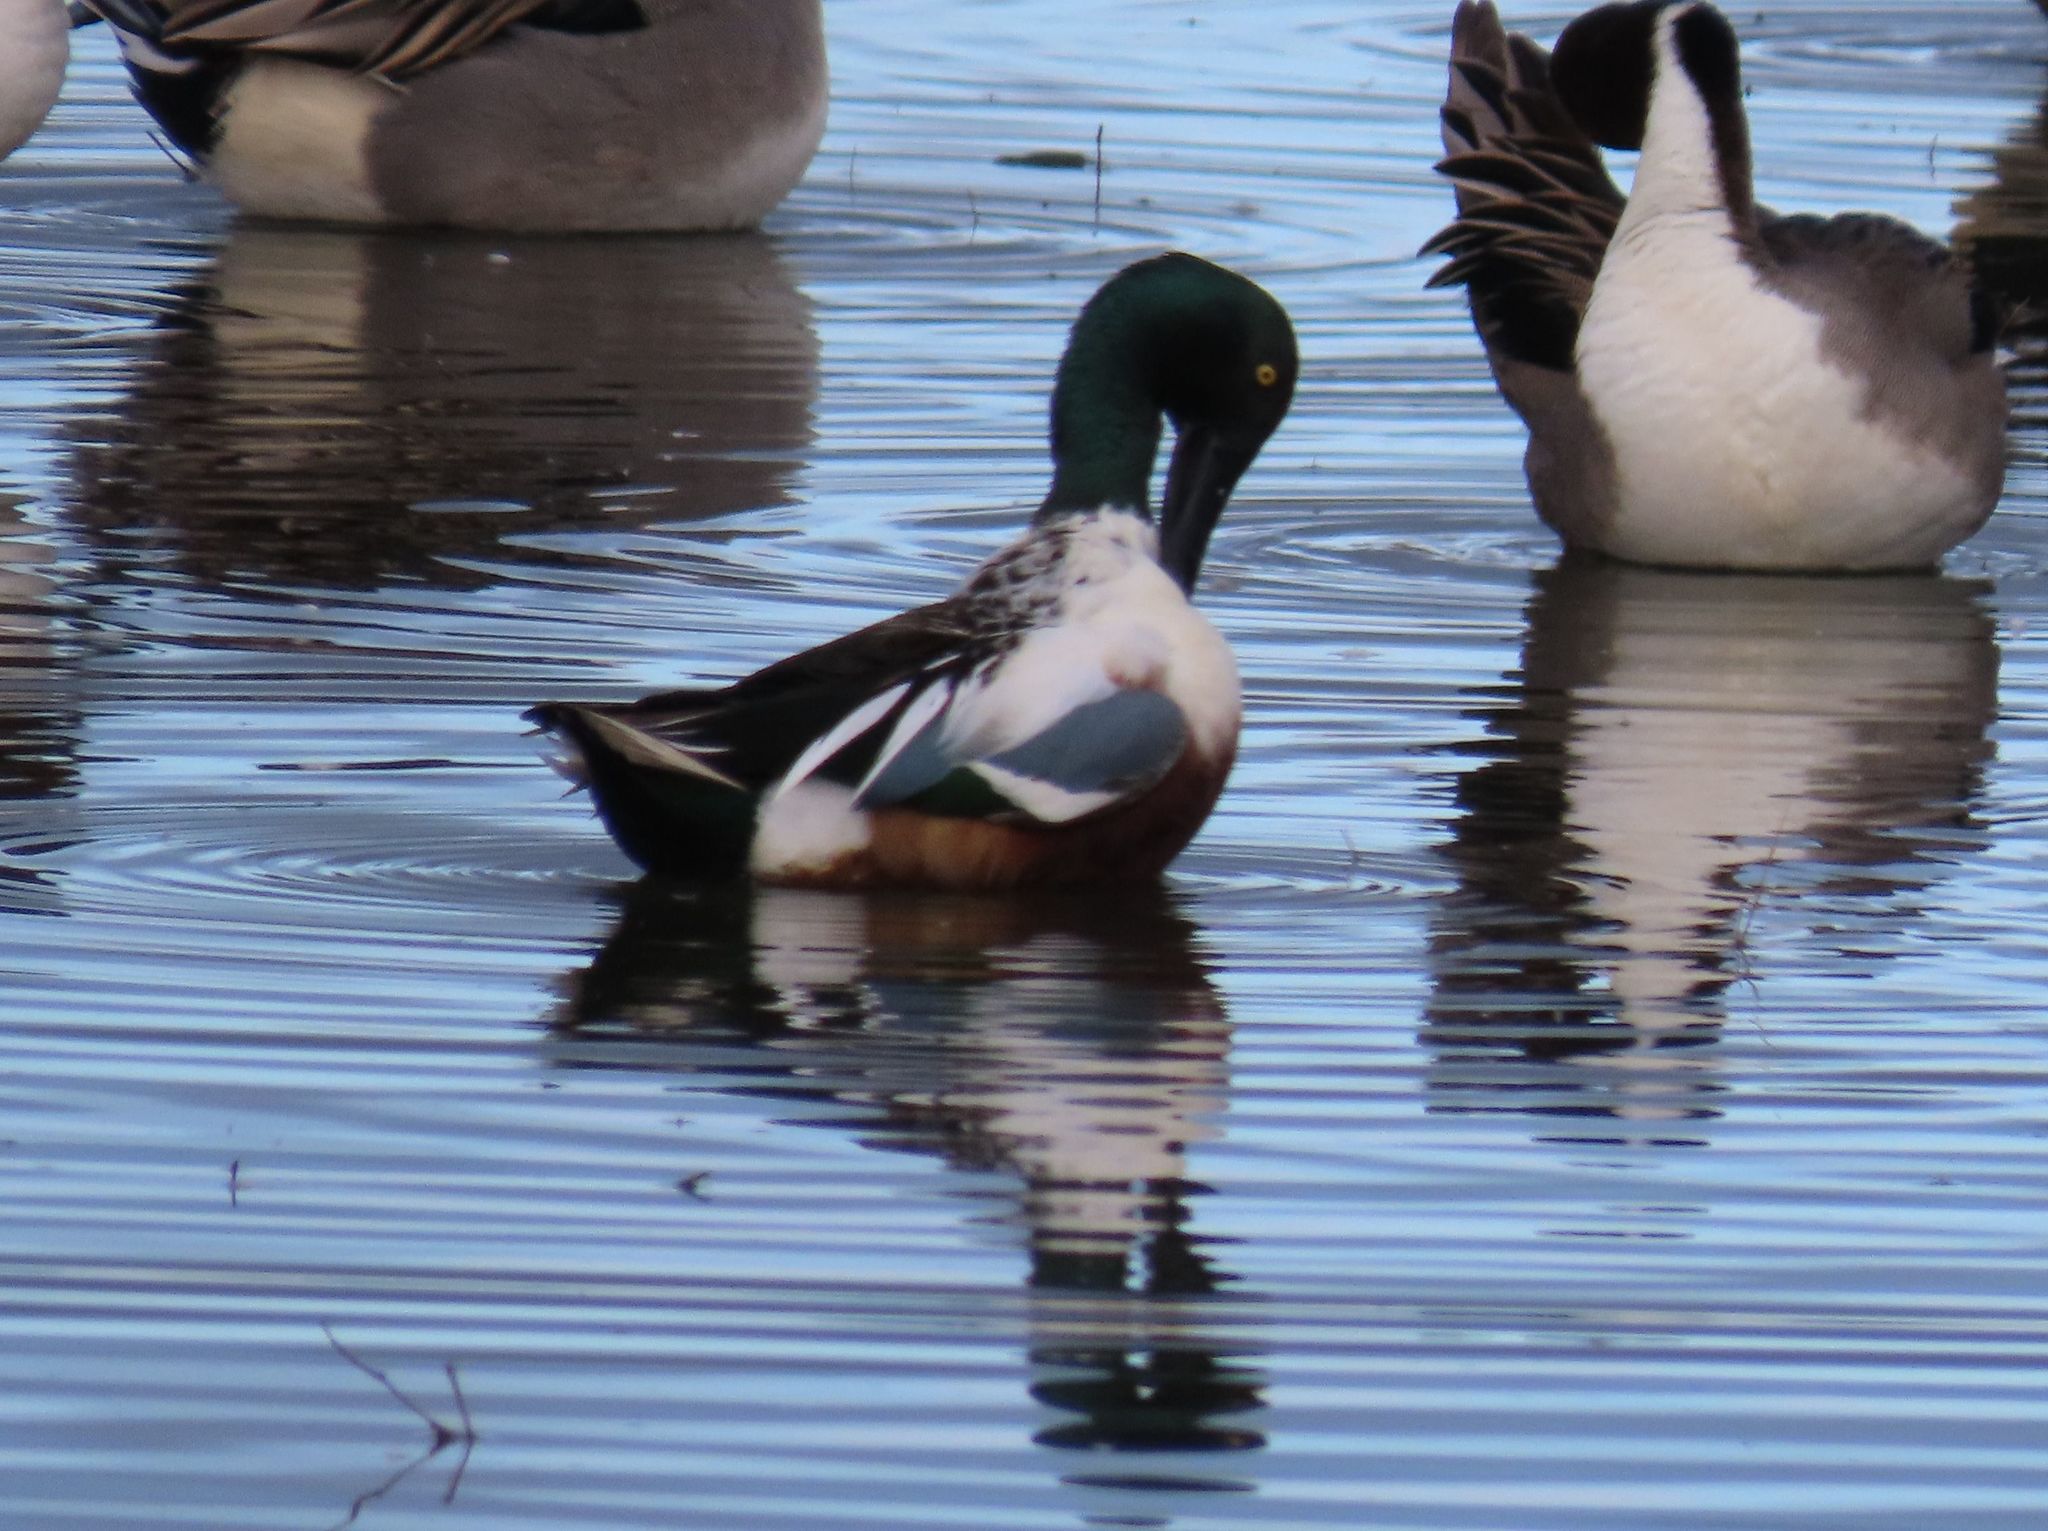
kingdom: Animalia
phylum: Chordata
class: Aves
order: Anseriformes
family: Anatidae
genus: Spatula
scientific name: Spatula clypeata
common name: Northern shoveler
